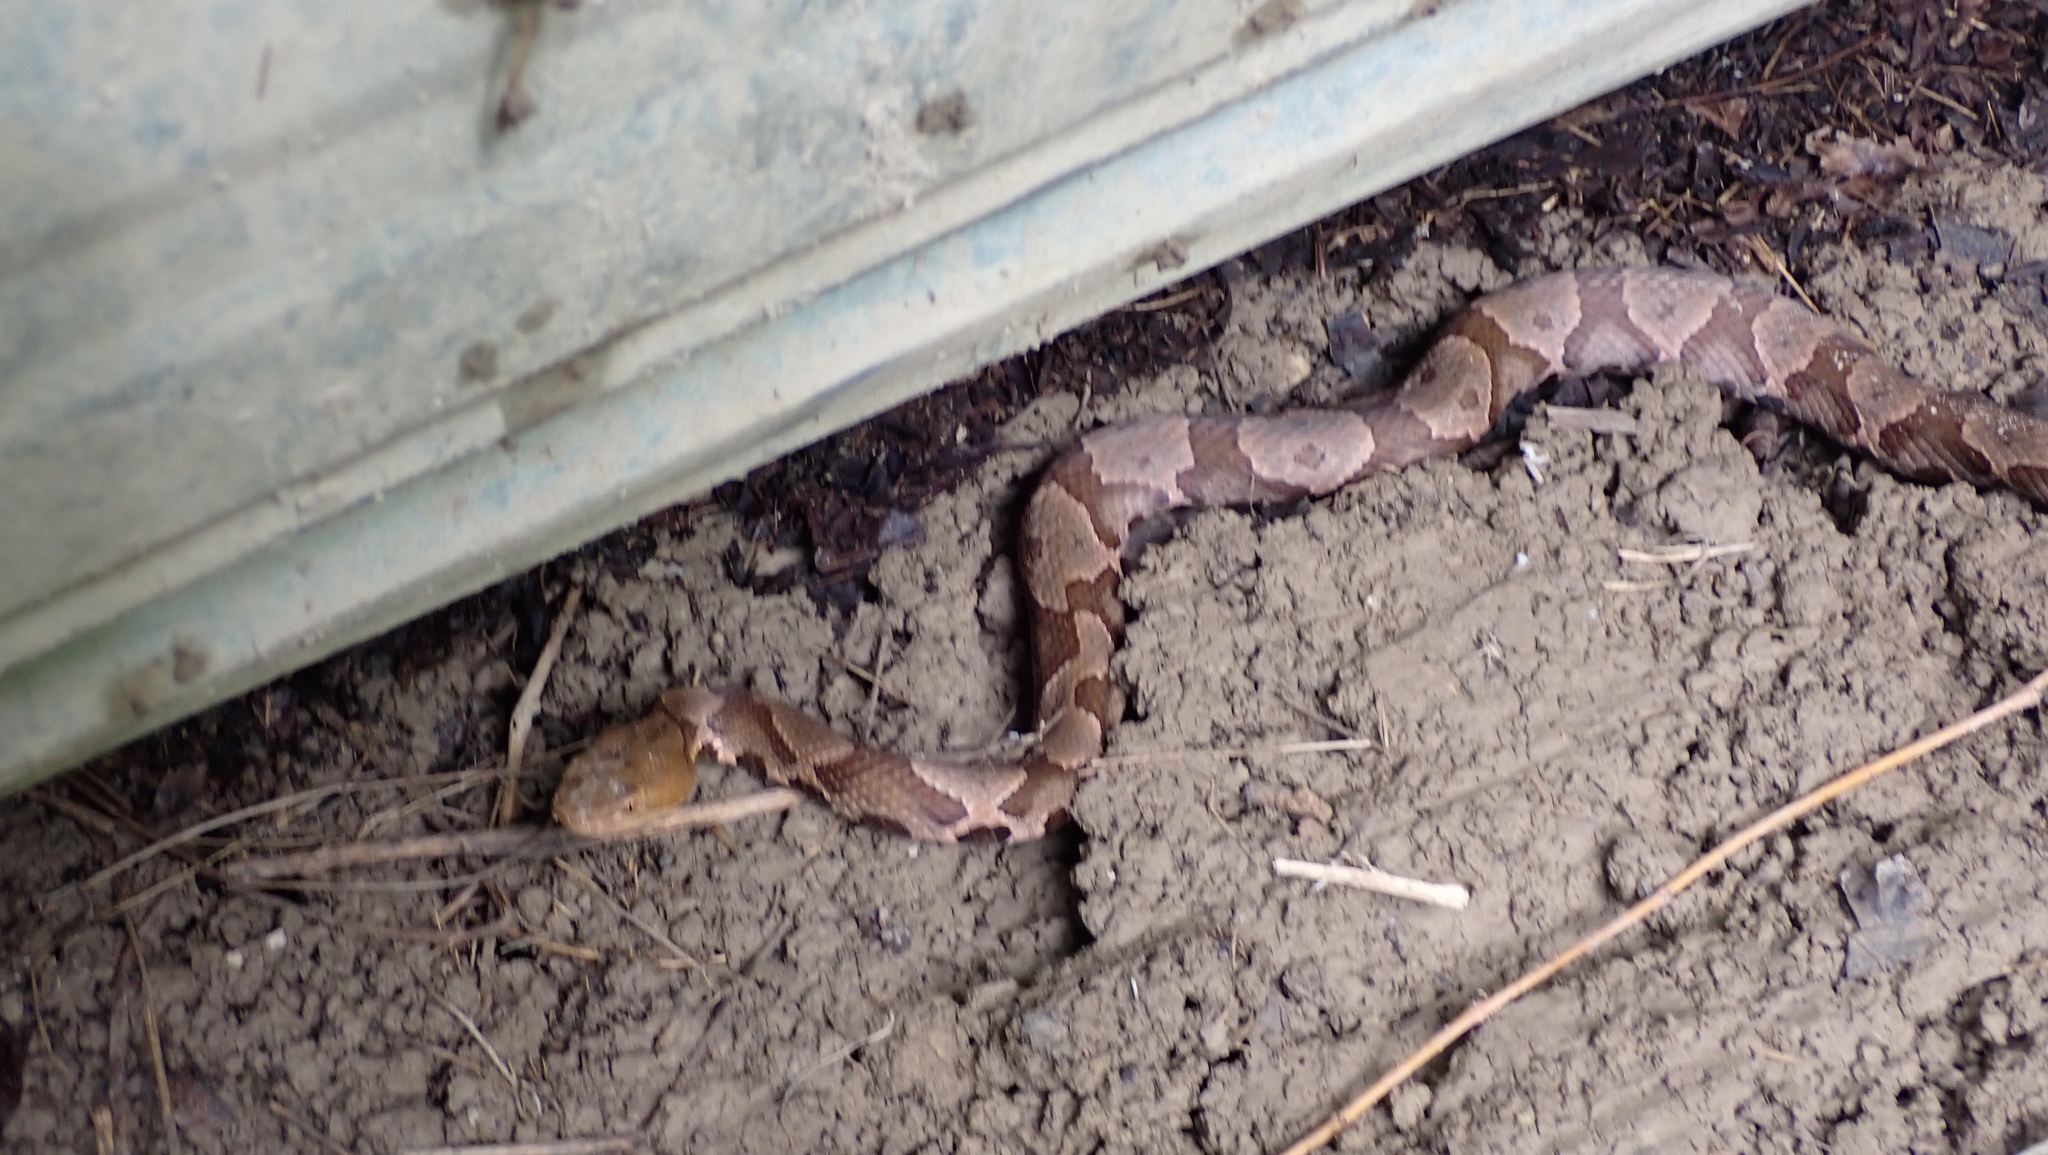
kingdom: Animalia
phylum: Chordata
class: Squamata
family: Viperidae
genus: Agkistrodon
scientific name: Agkistrodon contortrix
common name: Northern copperhead
